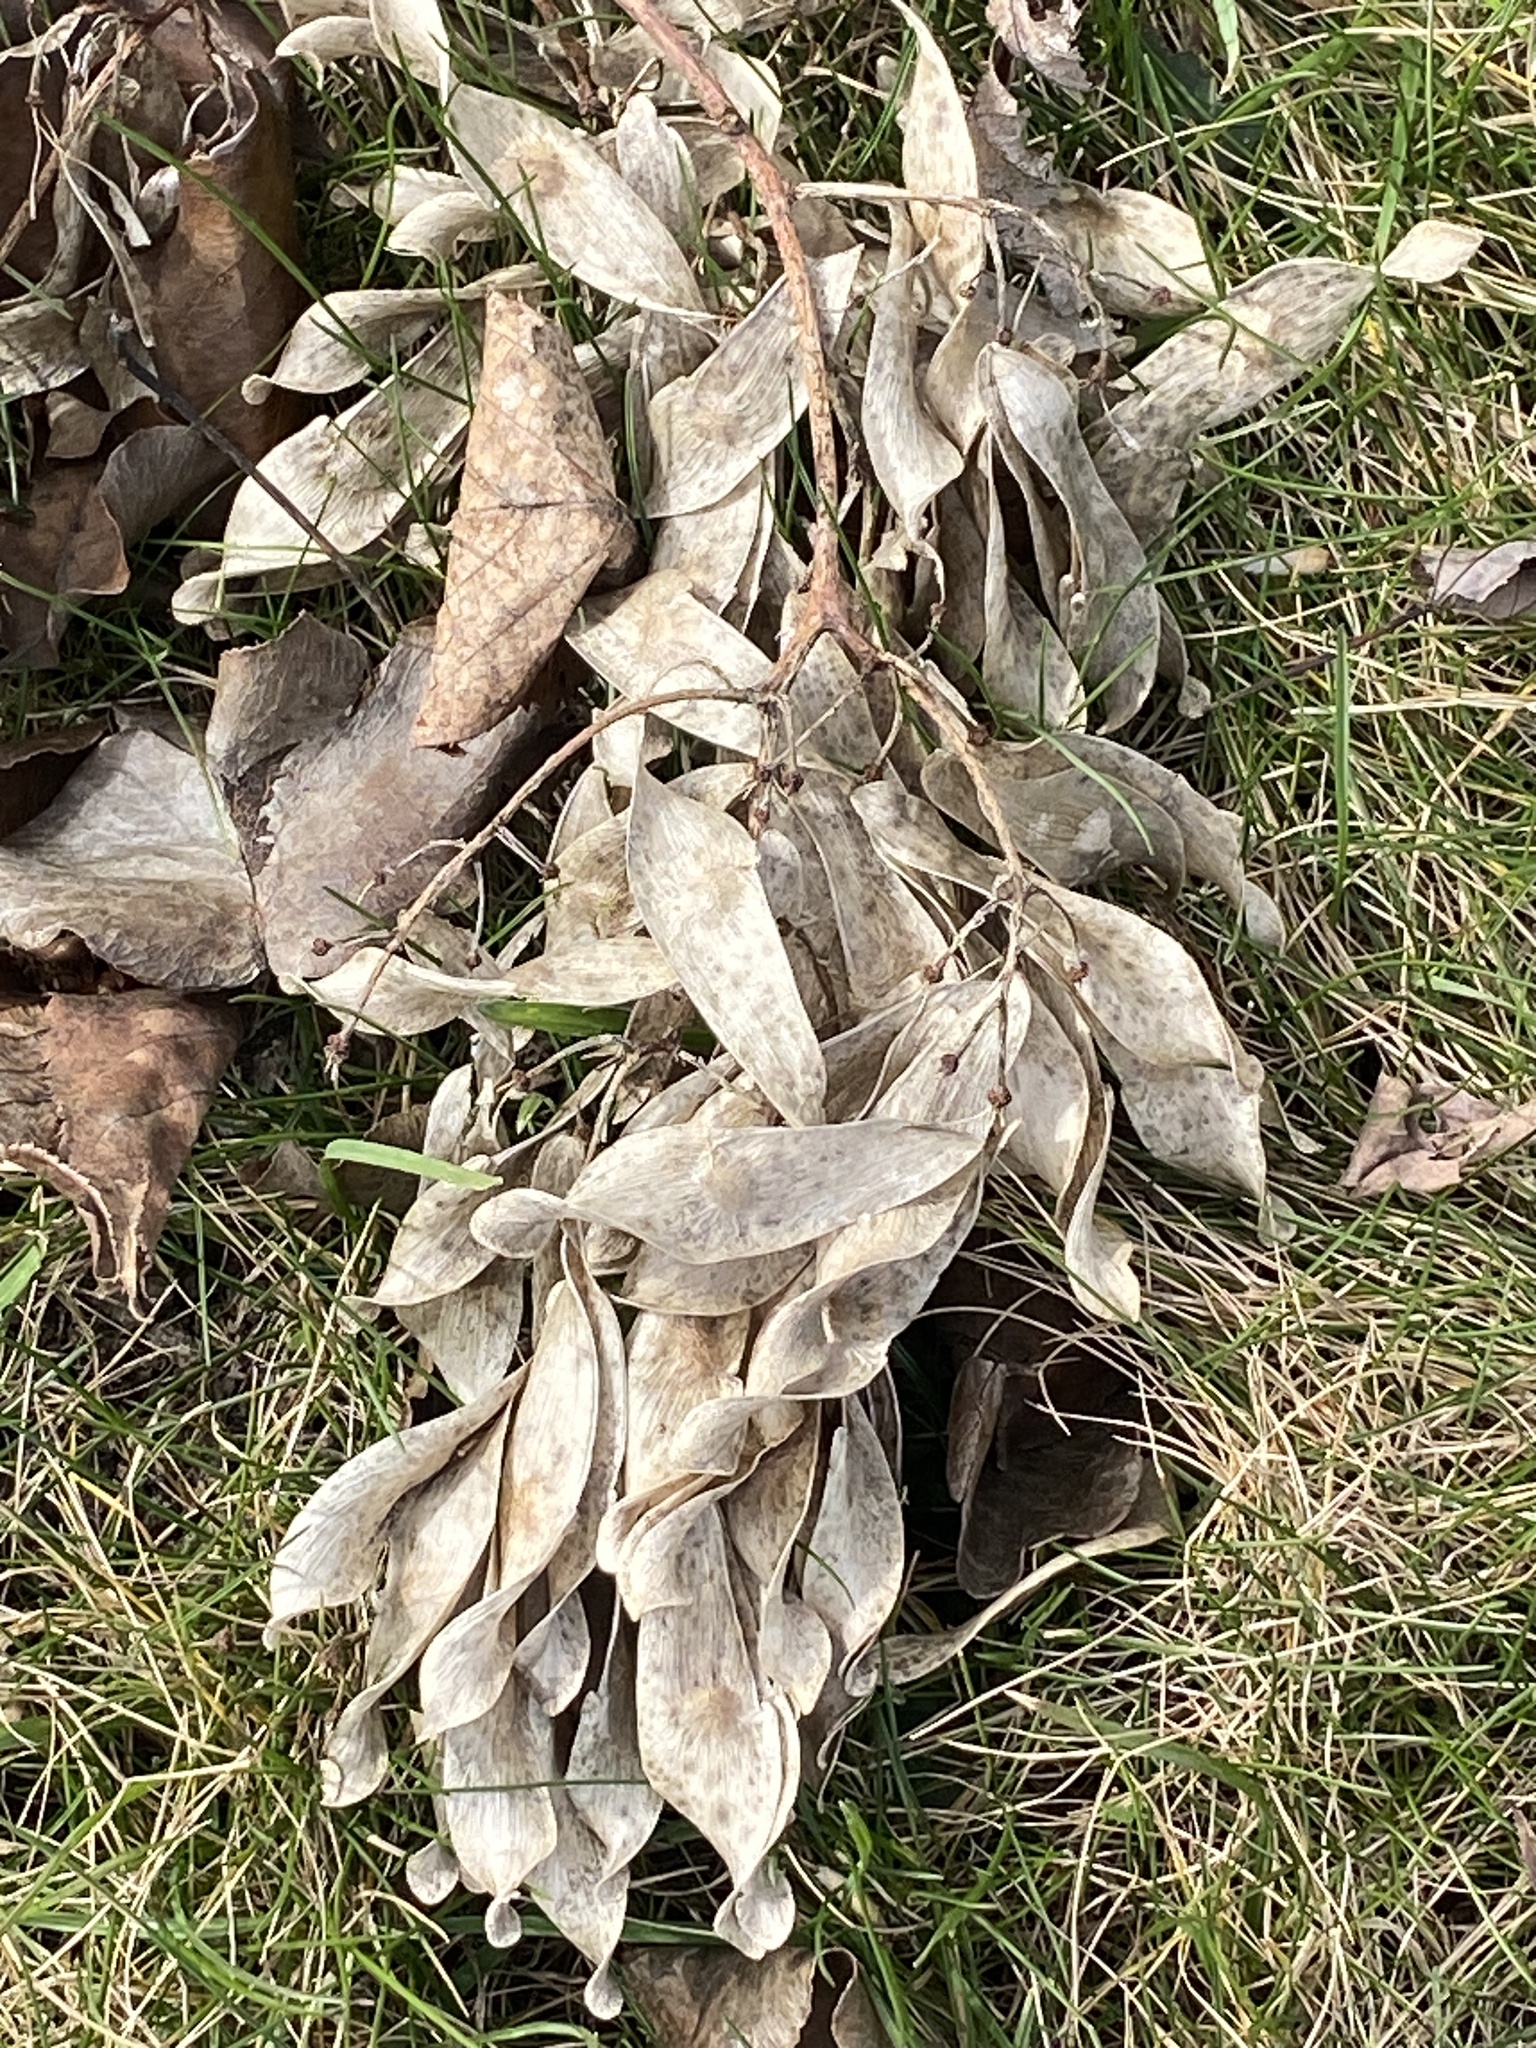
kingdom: Plantae
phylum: Tracheophyta
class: Magnoliopsida
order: Sapindales
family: Simaroubaceae
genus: Ailanthus
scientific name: Ailanthus altissima
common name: Tree-of-heaven
